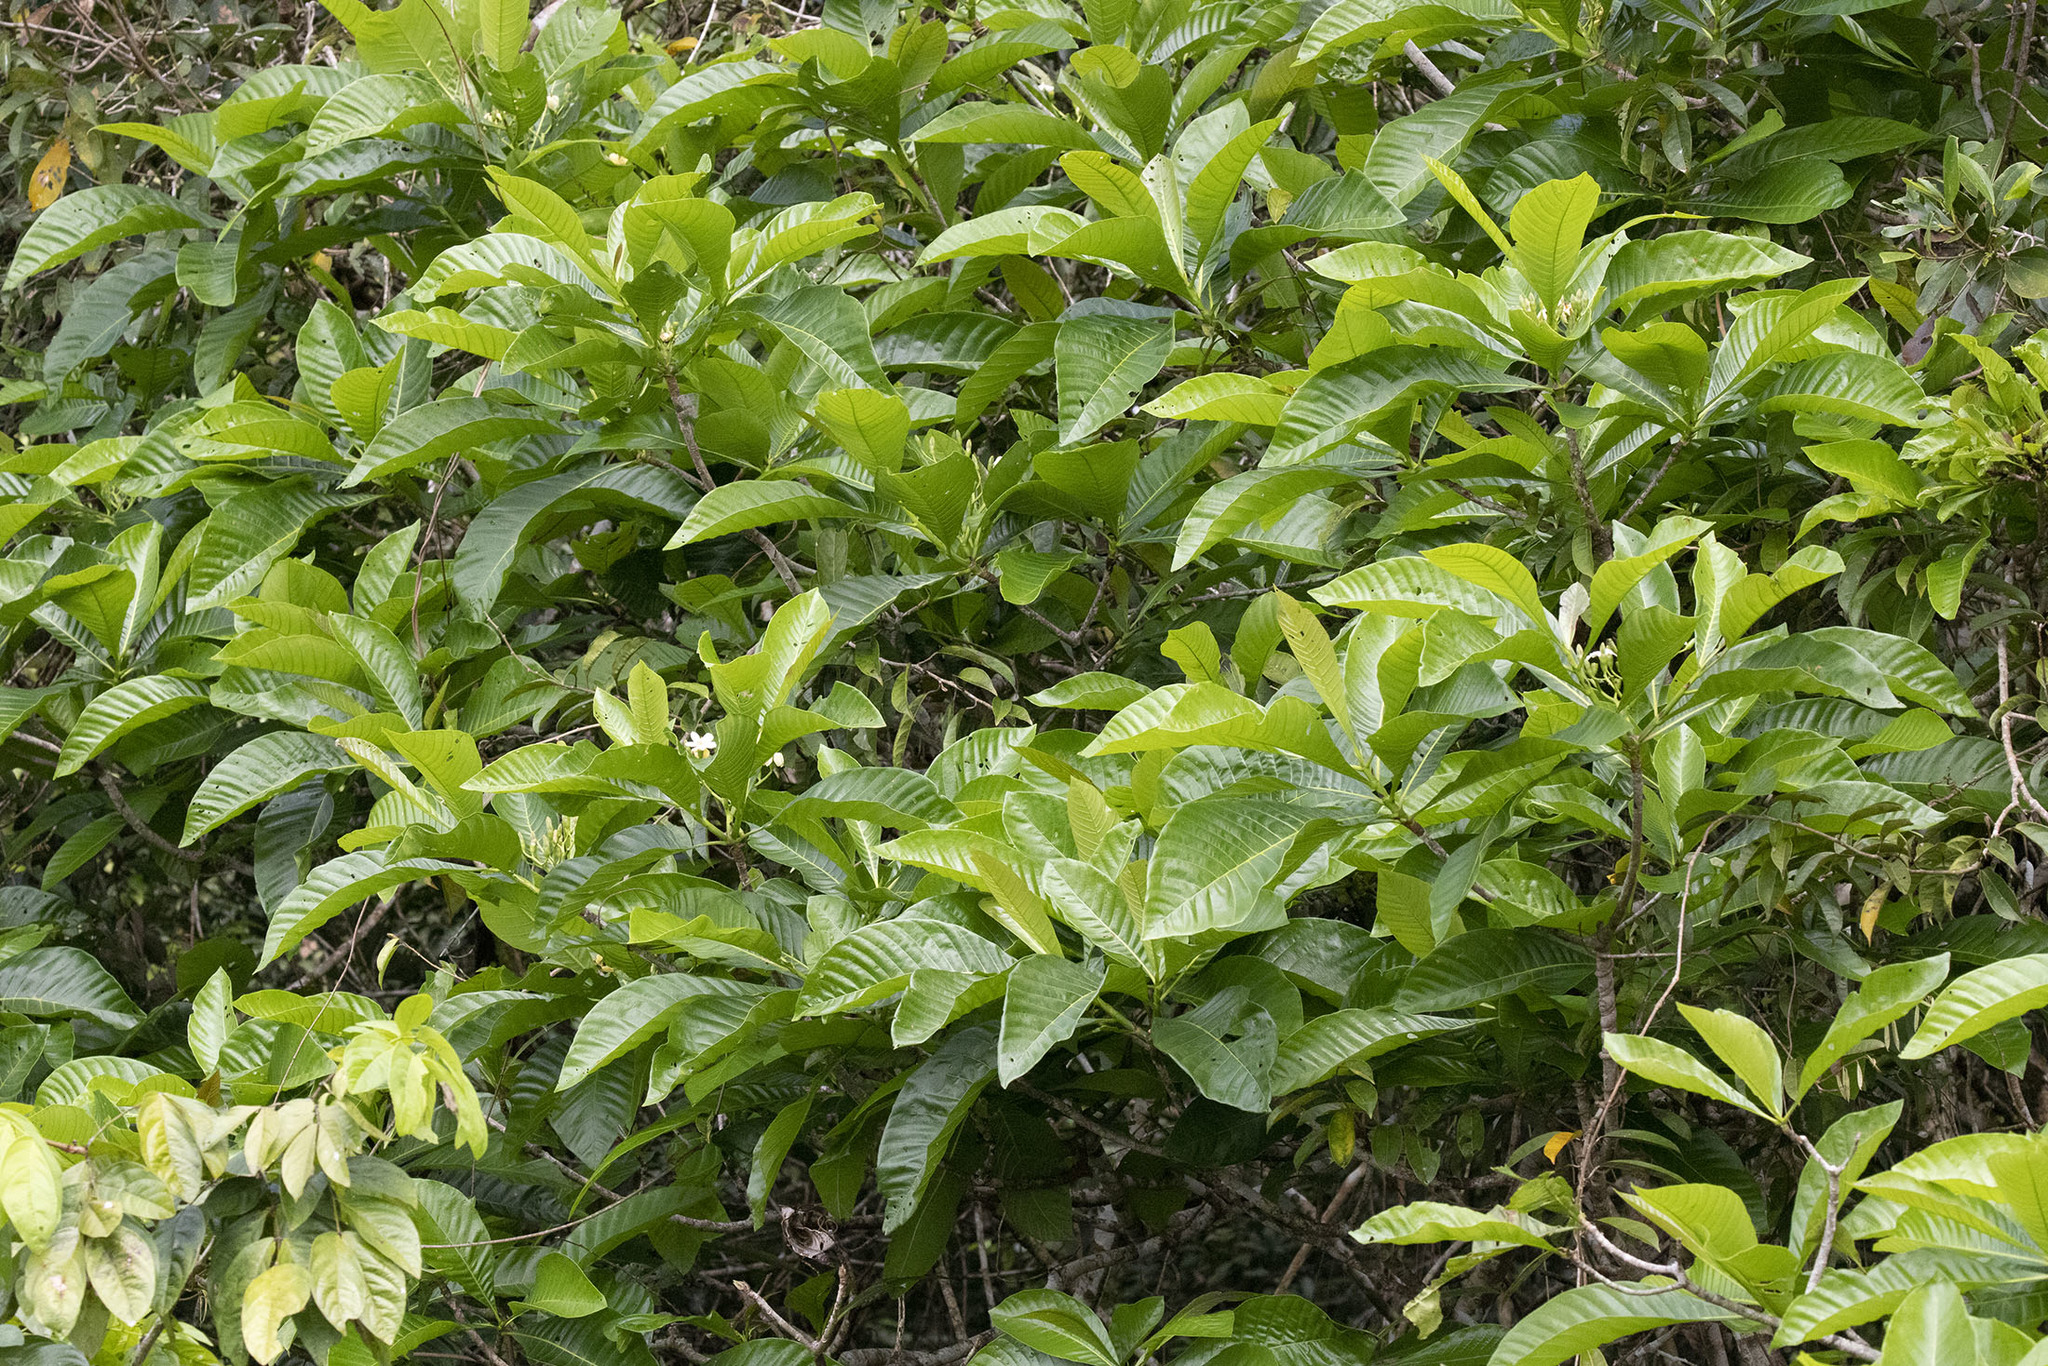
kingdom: Plantae
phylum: Tracheophyta
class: Magnoliopsida
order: Gentianales
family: Rubiaceae
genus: Genipa
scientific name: Genipa americana
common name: Genipap
